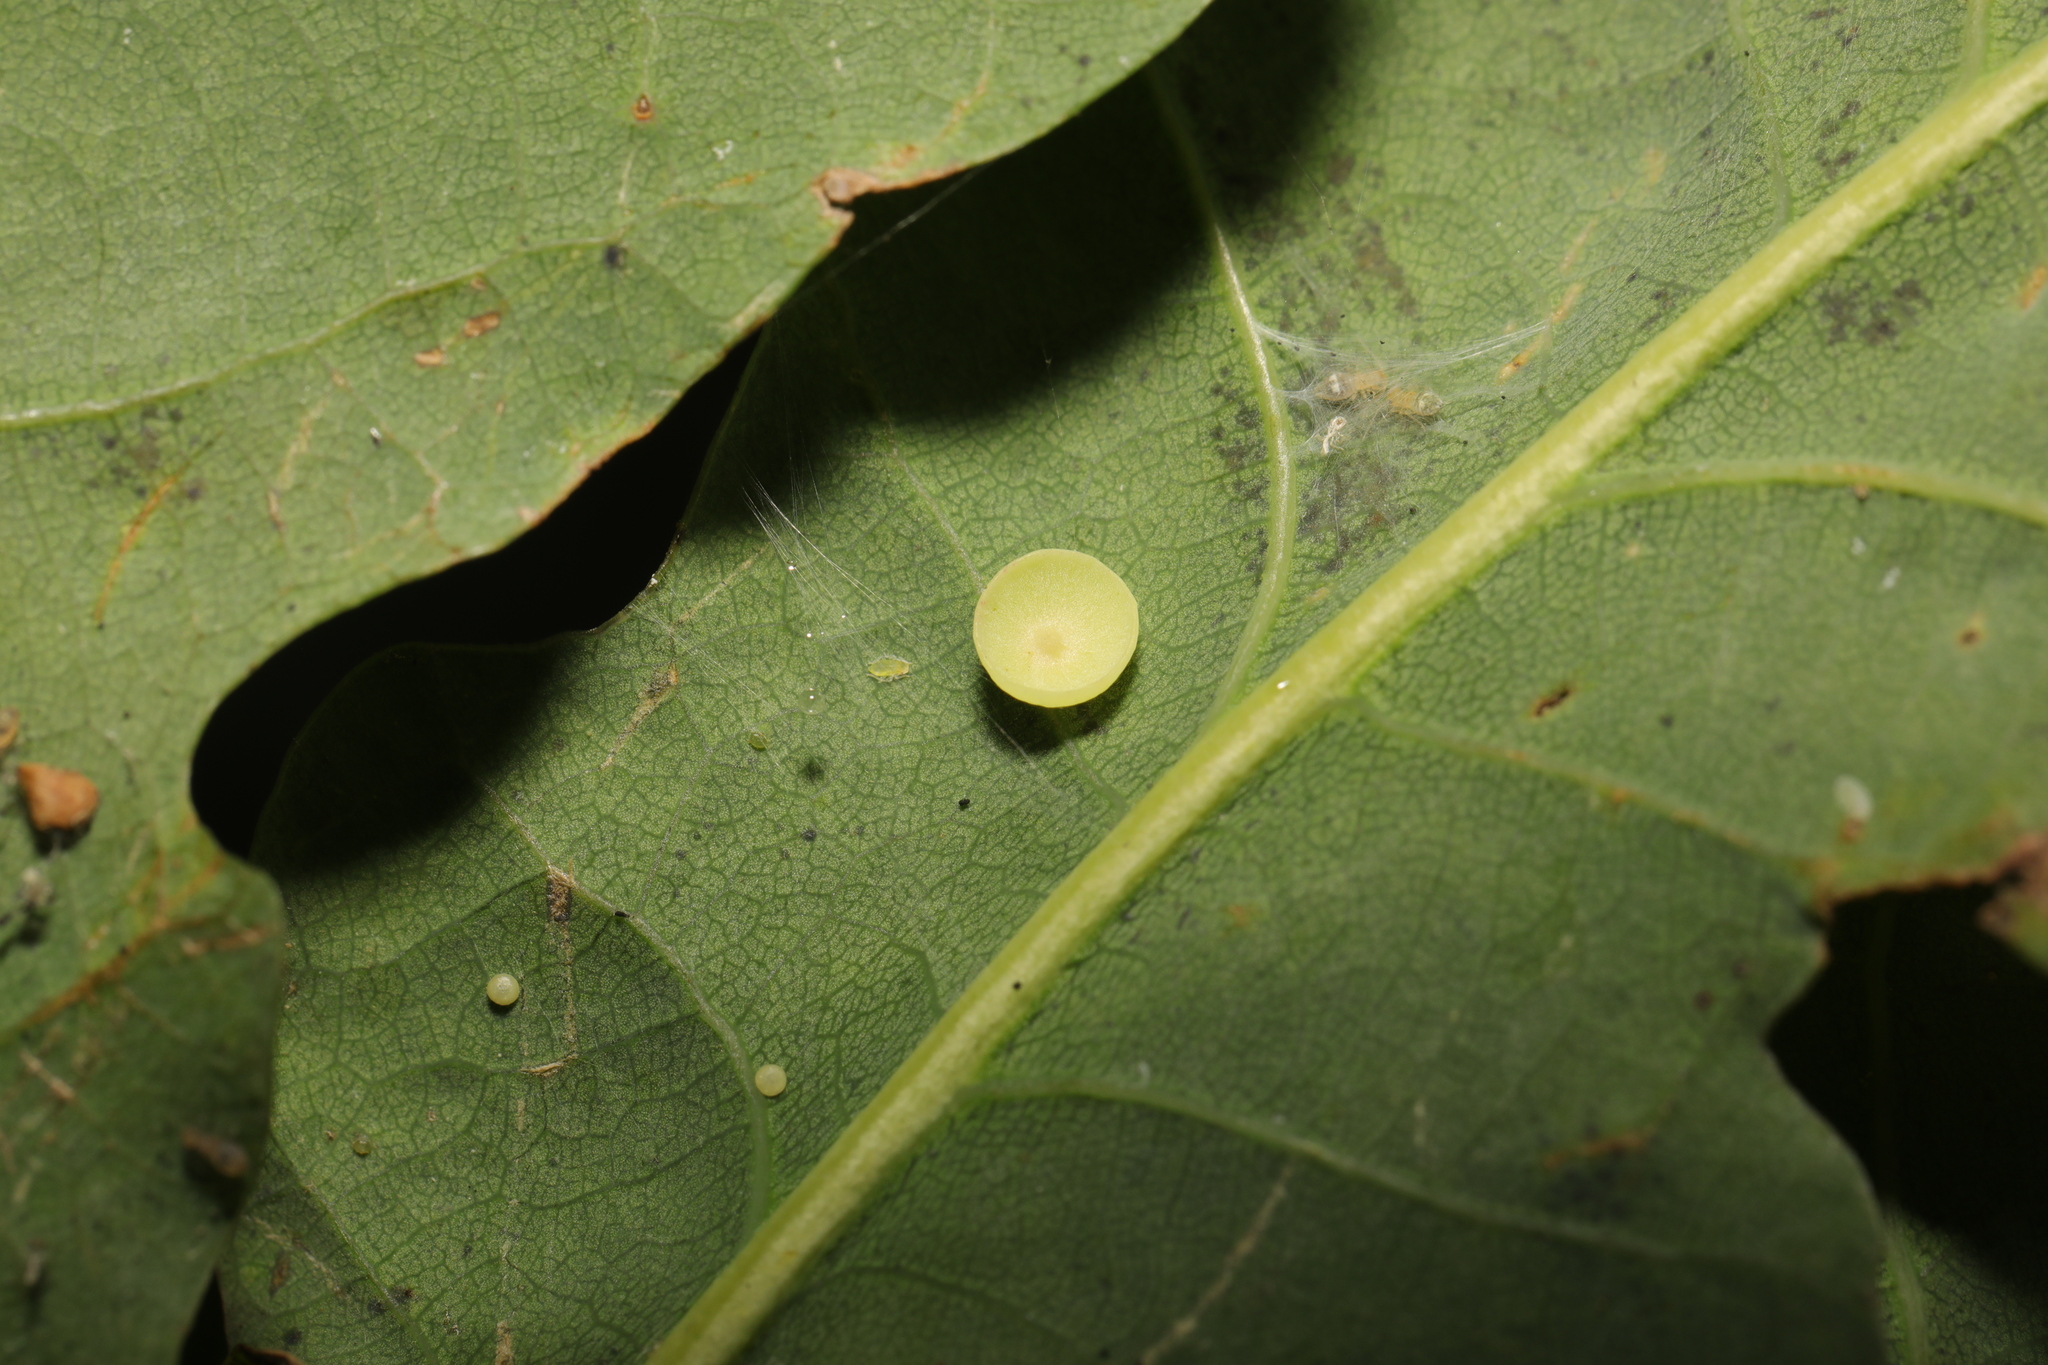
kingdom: Animalia
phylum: Arthropoda
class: Insecta
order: Hymenoptera
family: Cynipidae
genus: Neuroterus
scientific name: Neuroterus albipes
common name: Smooth spangle gall
